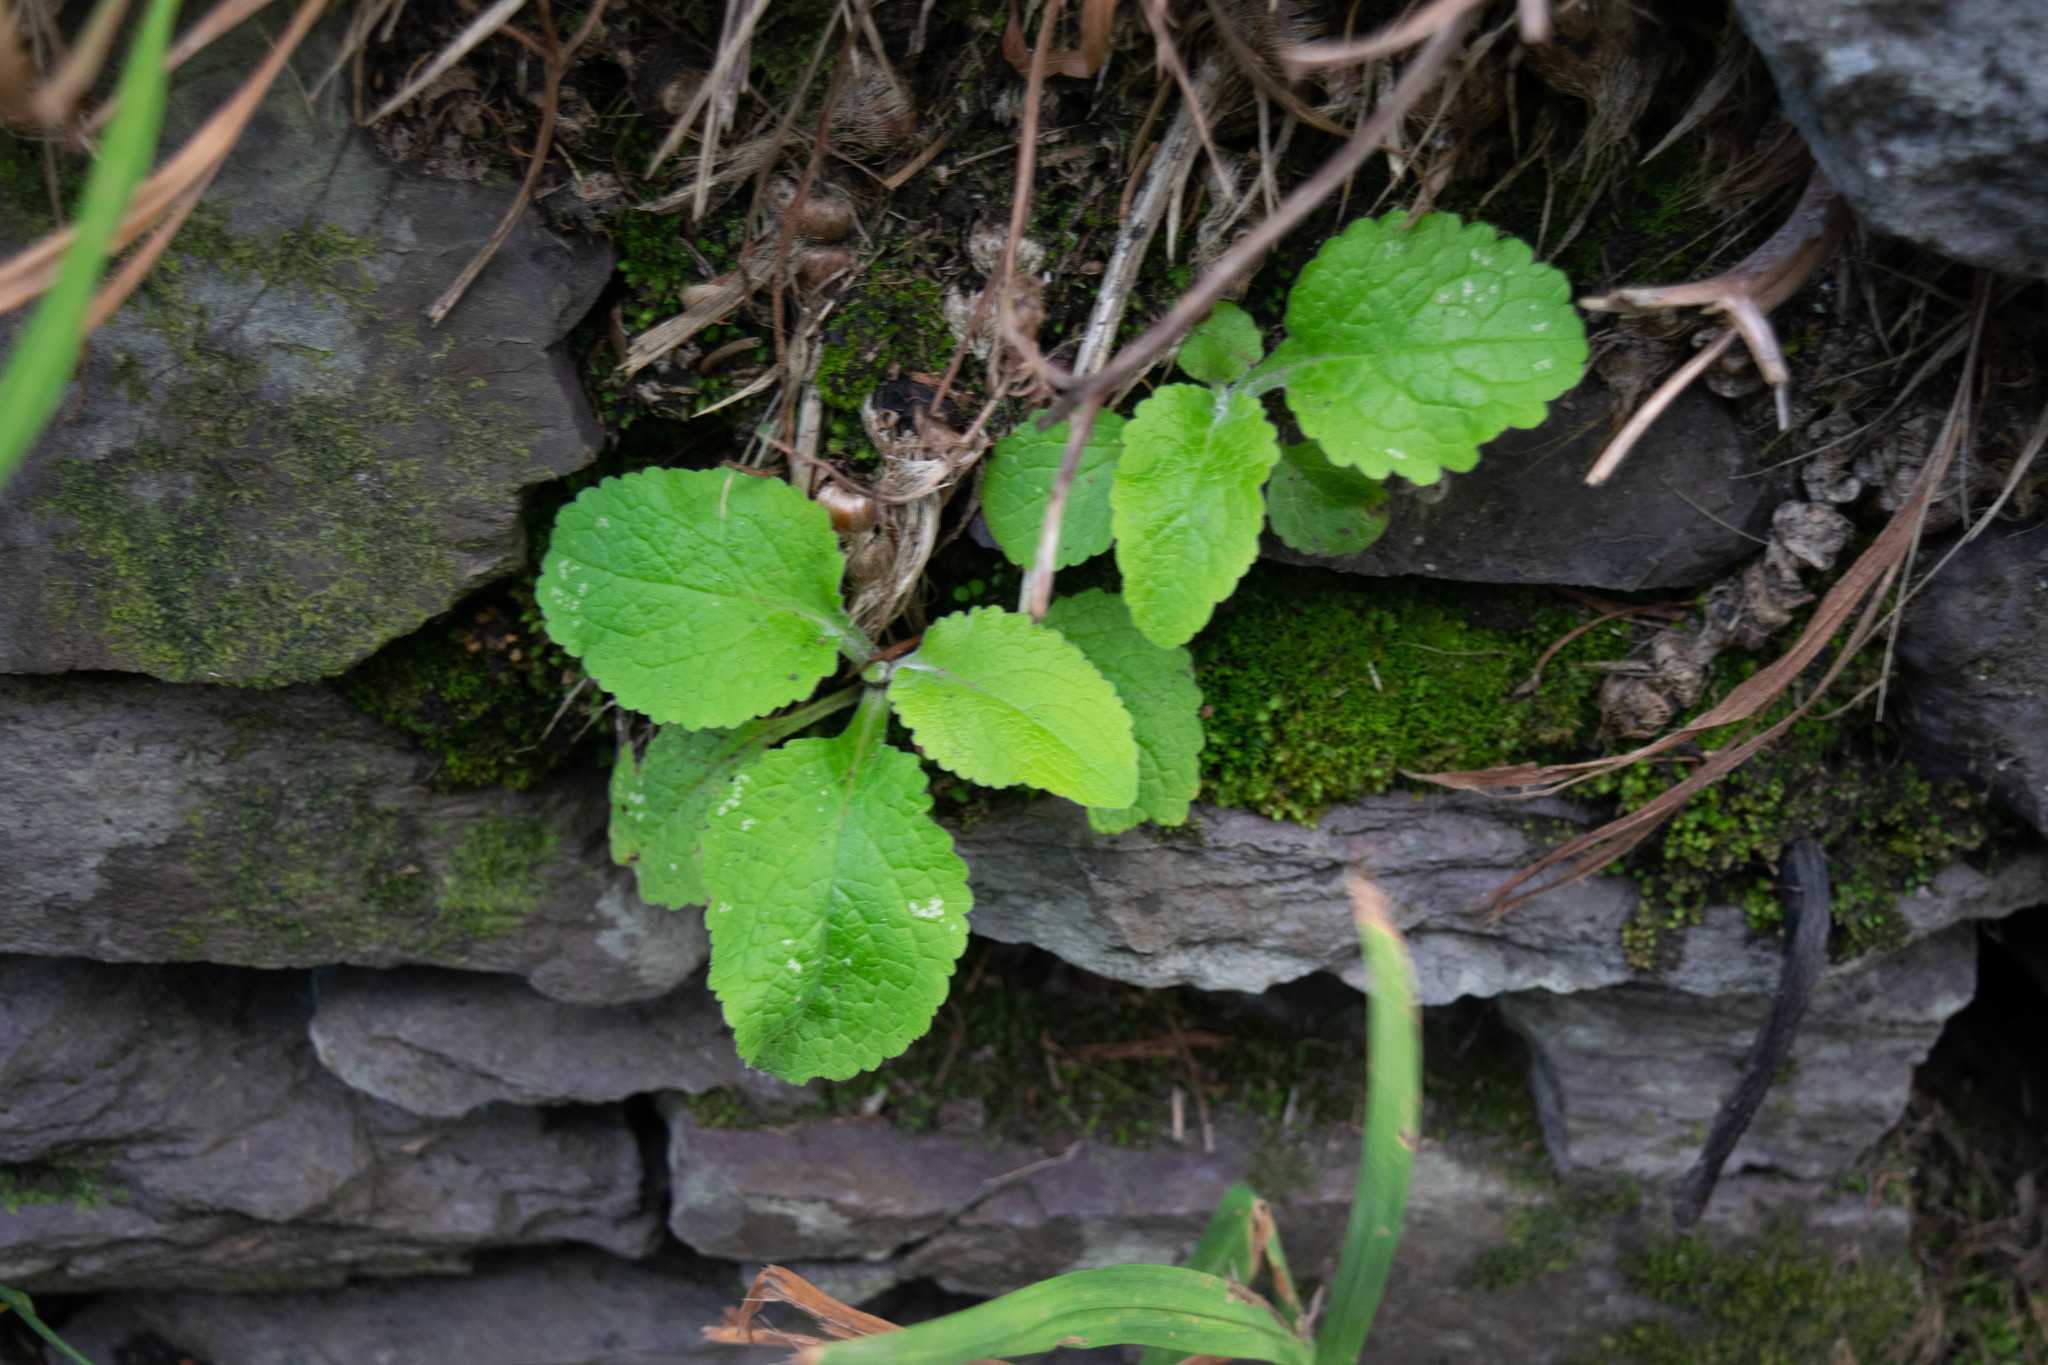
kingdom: Plantae
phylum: Tracheophyta
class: Magnoliopsida
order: Lamiales
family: Plantaginaceae
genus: Digitalis
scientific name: Digitalis purpurea
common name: Foxglove
